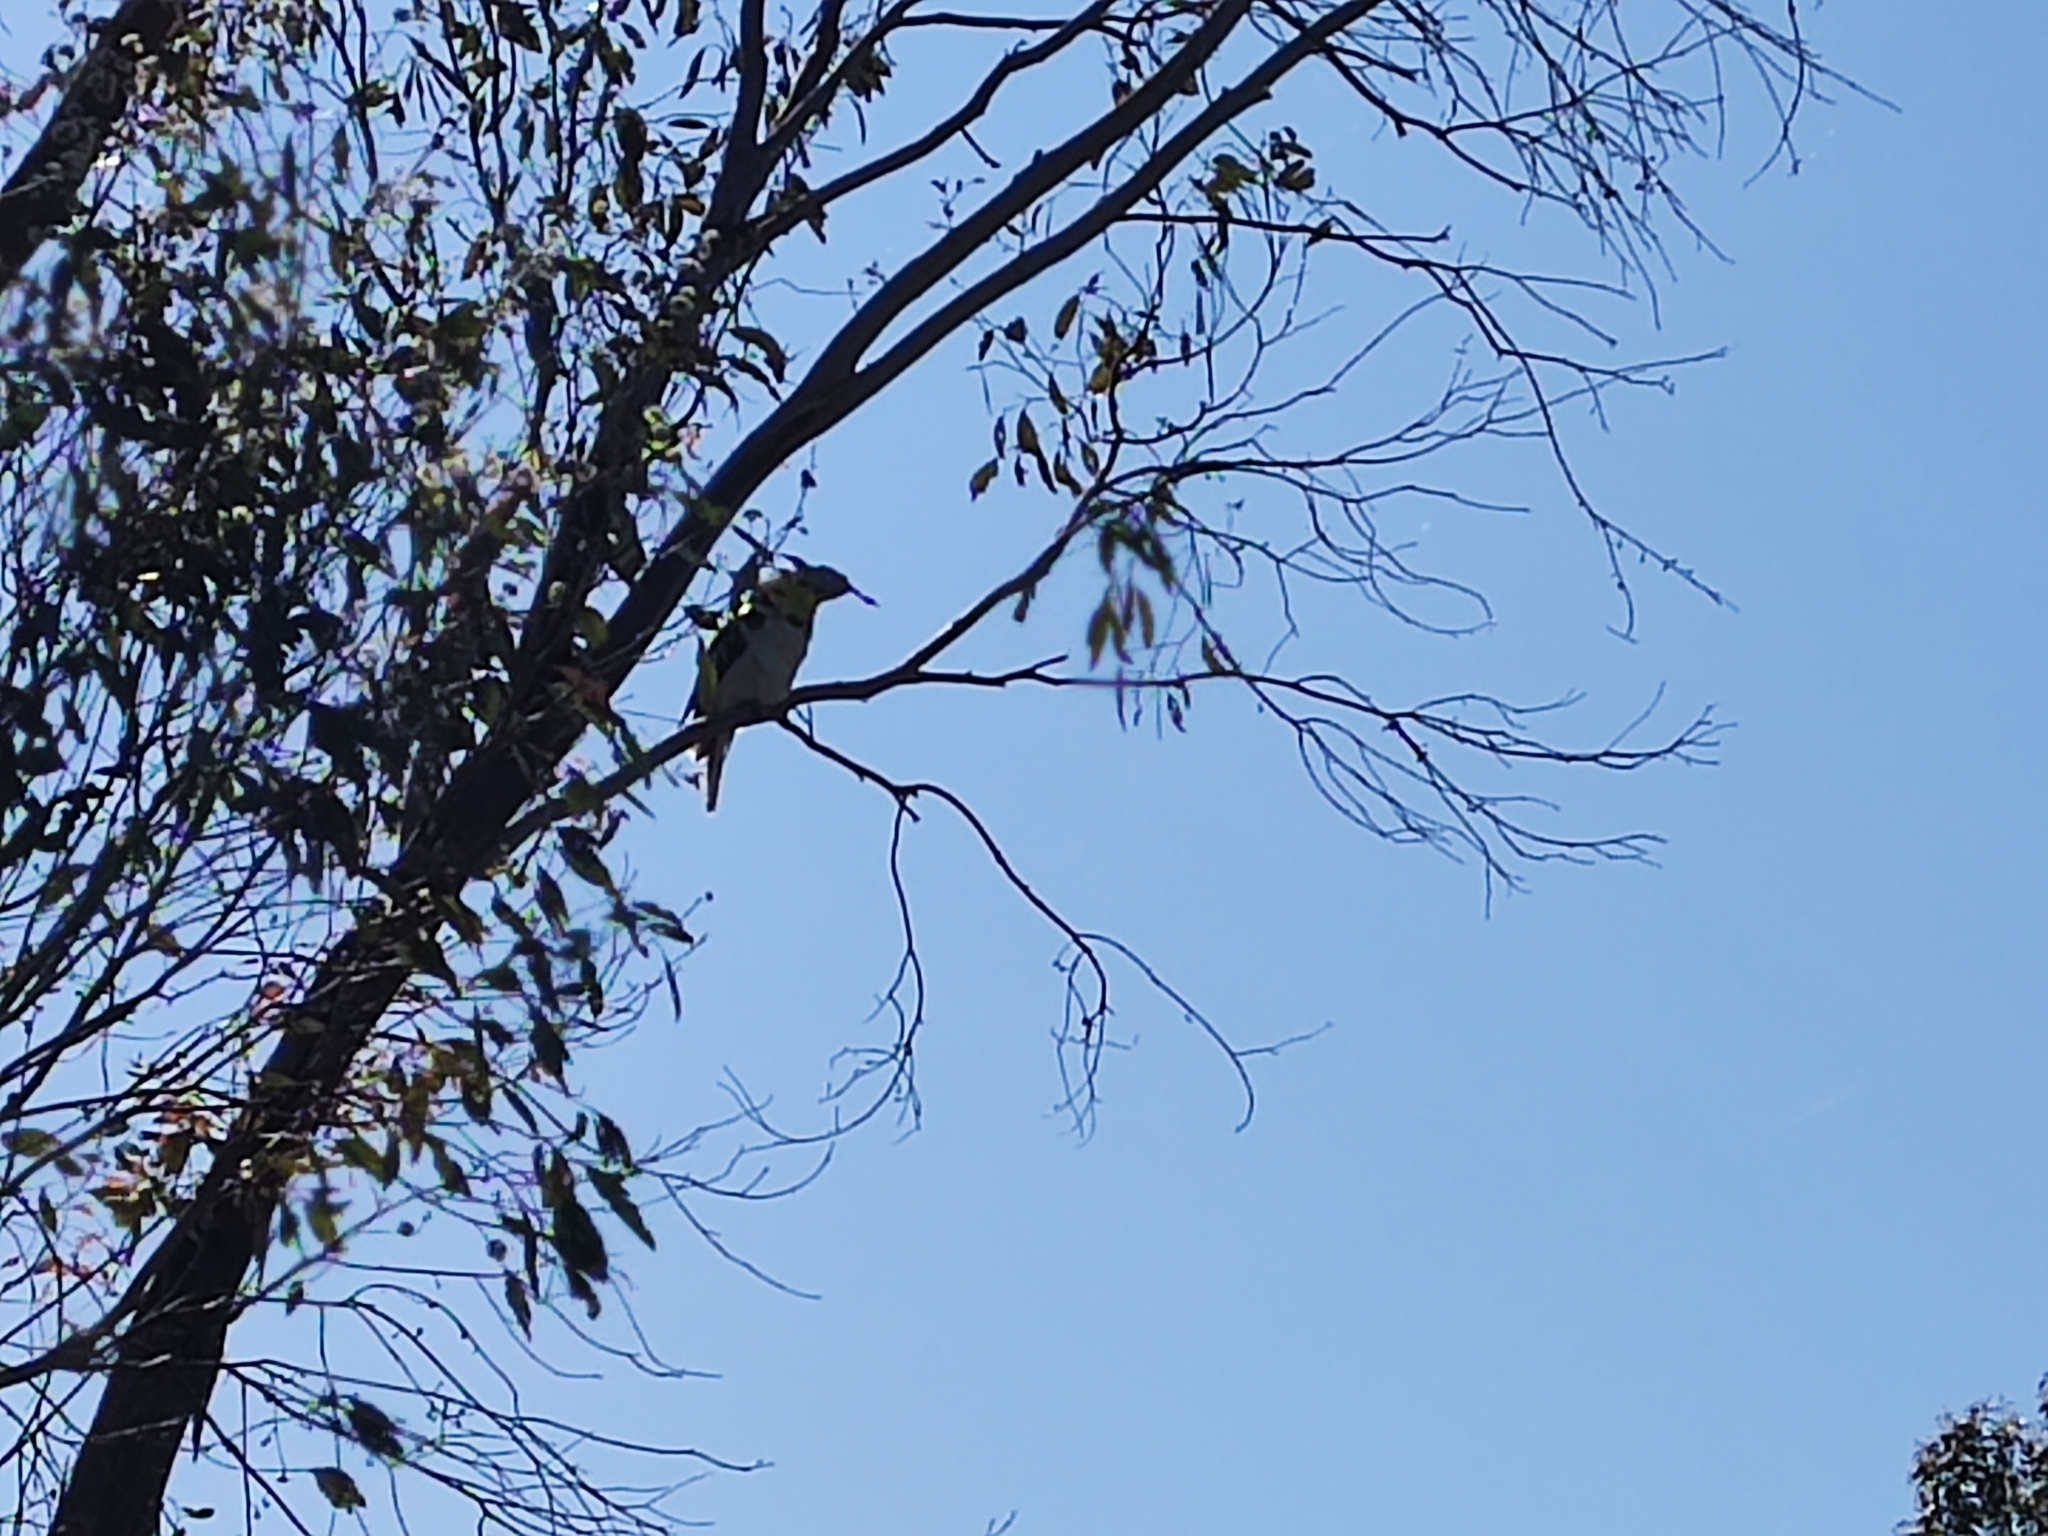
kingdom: Animalia
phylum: Chordata
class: Aves
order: Coraciiformes
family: Alcedinidae
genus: Dacelo
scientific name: Dacelo novaeguineae
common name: Laughing kookaburra
